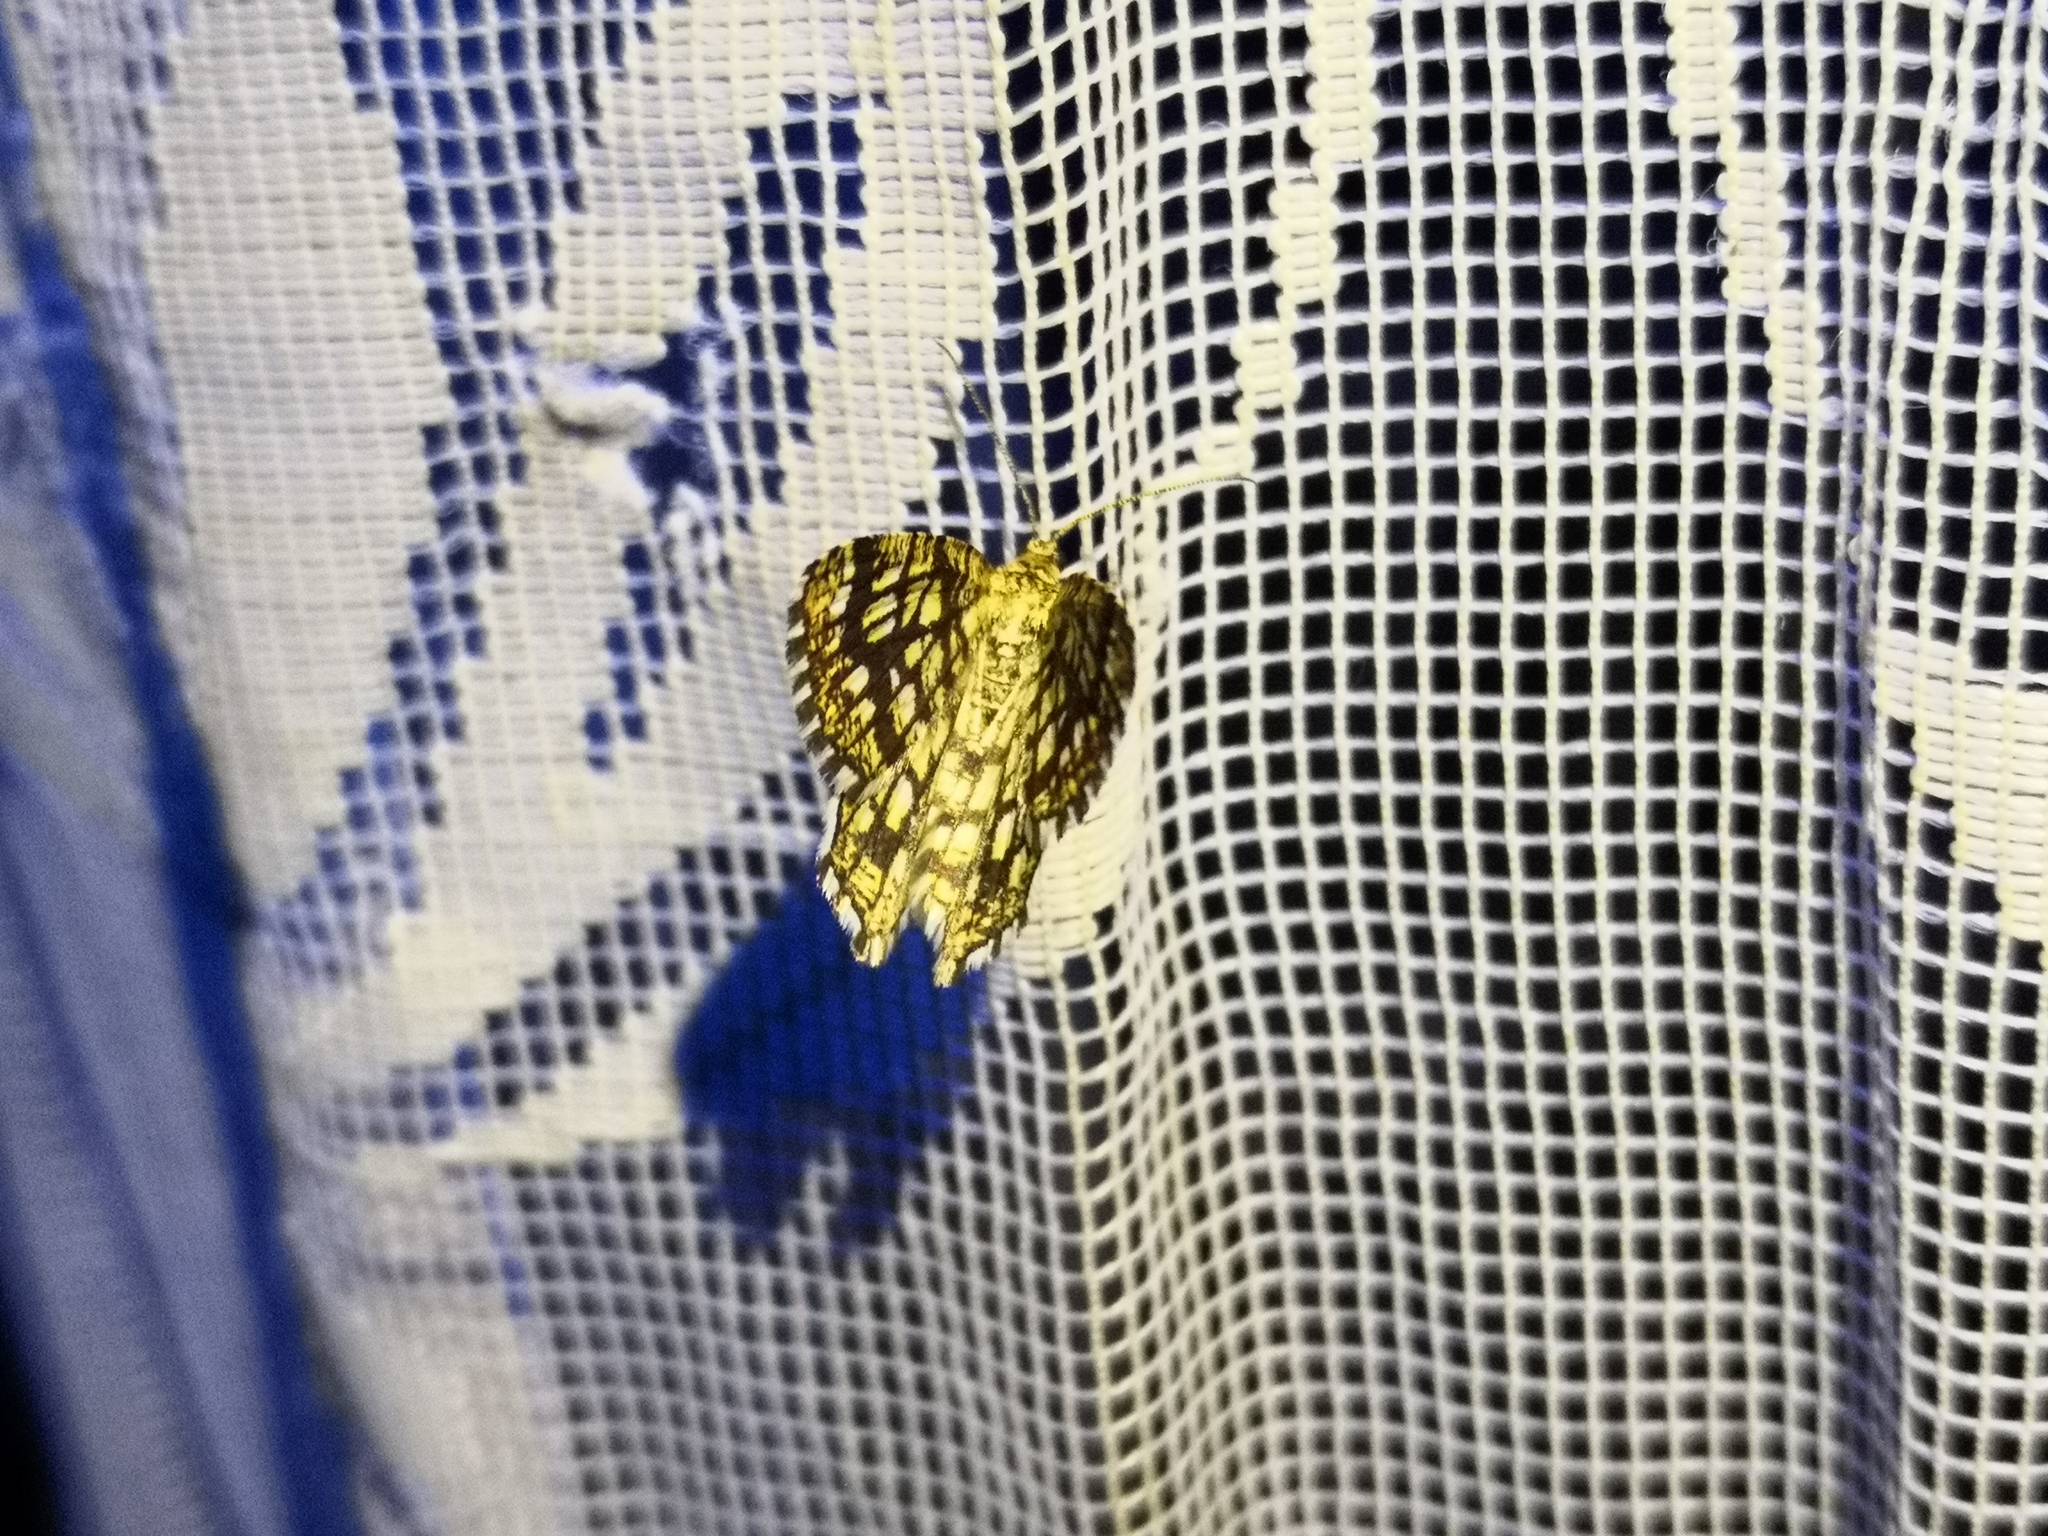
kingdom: Animalia
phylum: Arthropoda
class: Insecta
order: Lepidoptera
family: Geometridae
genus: Chiasmia
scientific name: Chiasmia clathrata
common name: Latticed heath
